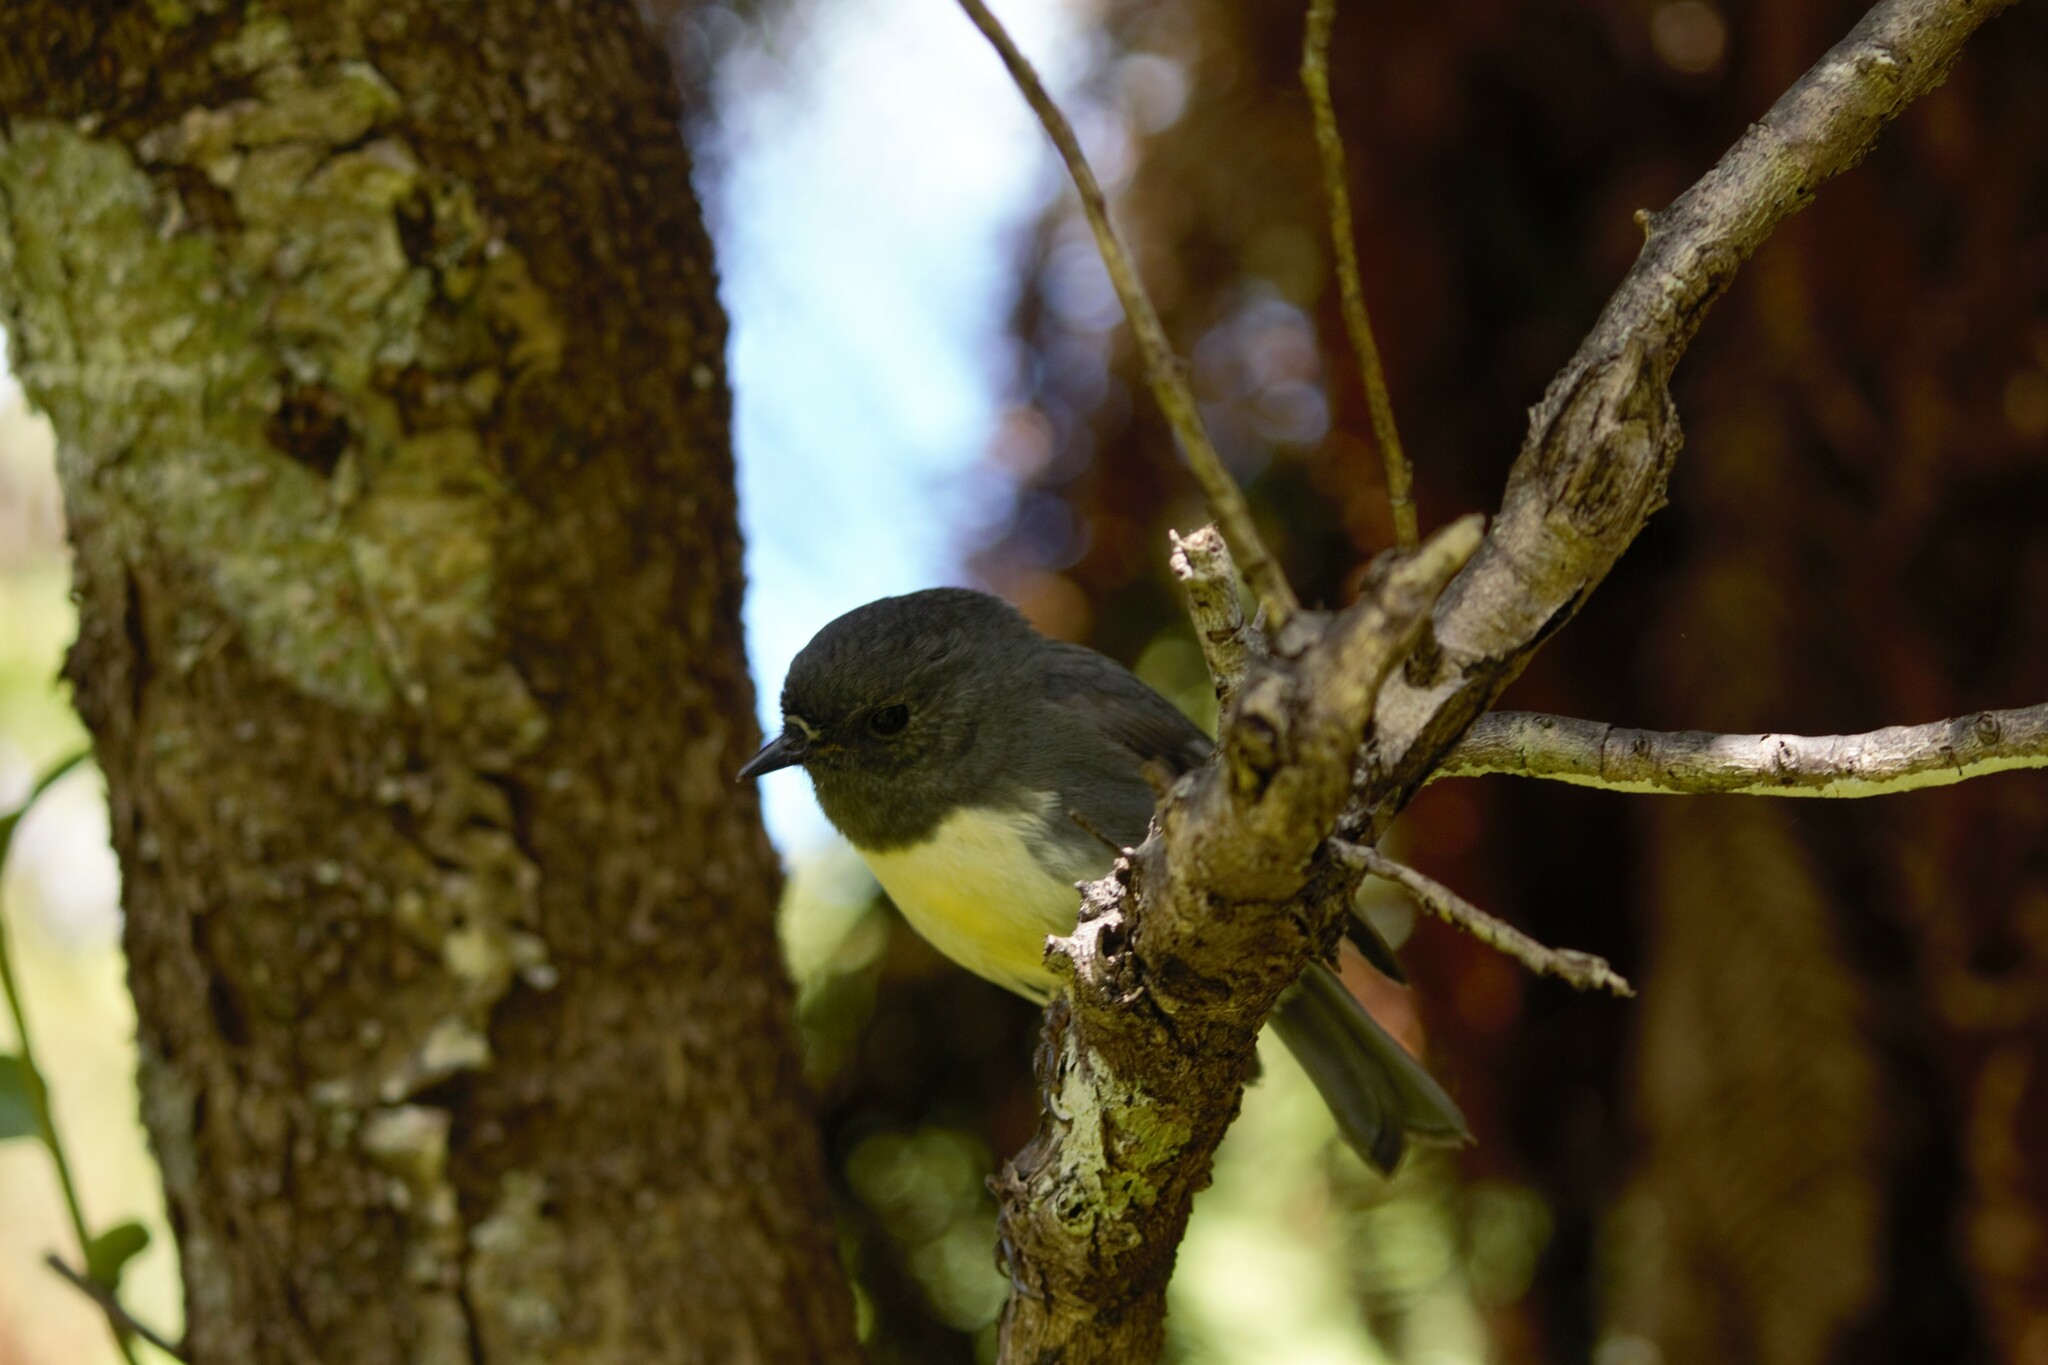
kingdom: Animalia
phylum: Chordata
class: Aves
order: Passeriformes
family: Petroicidae
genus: Petroica
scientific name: Petroica australis
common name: New zealand robin
